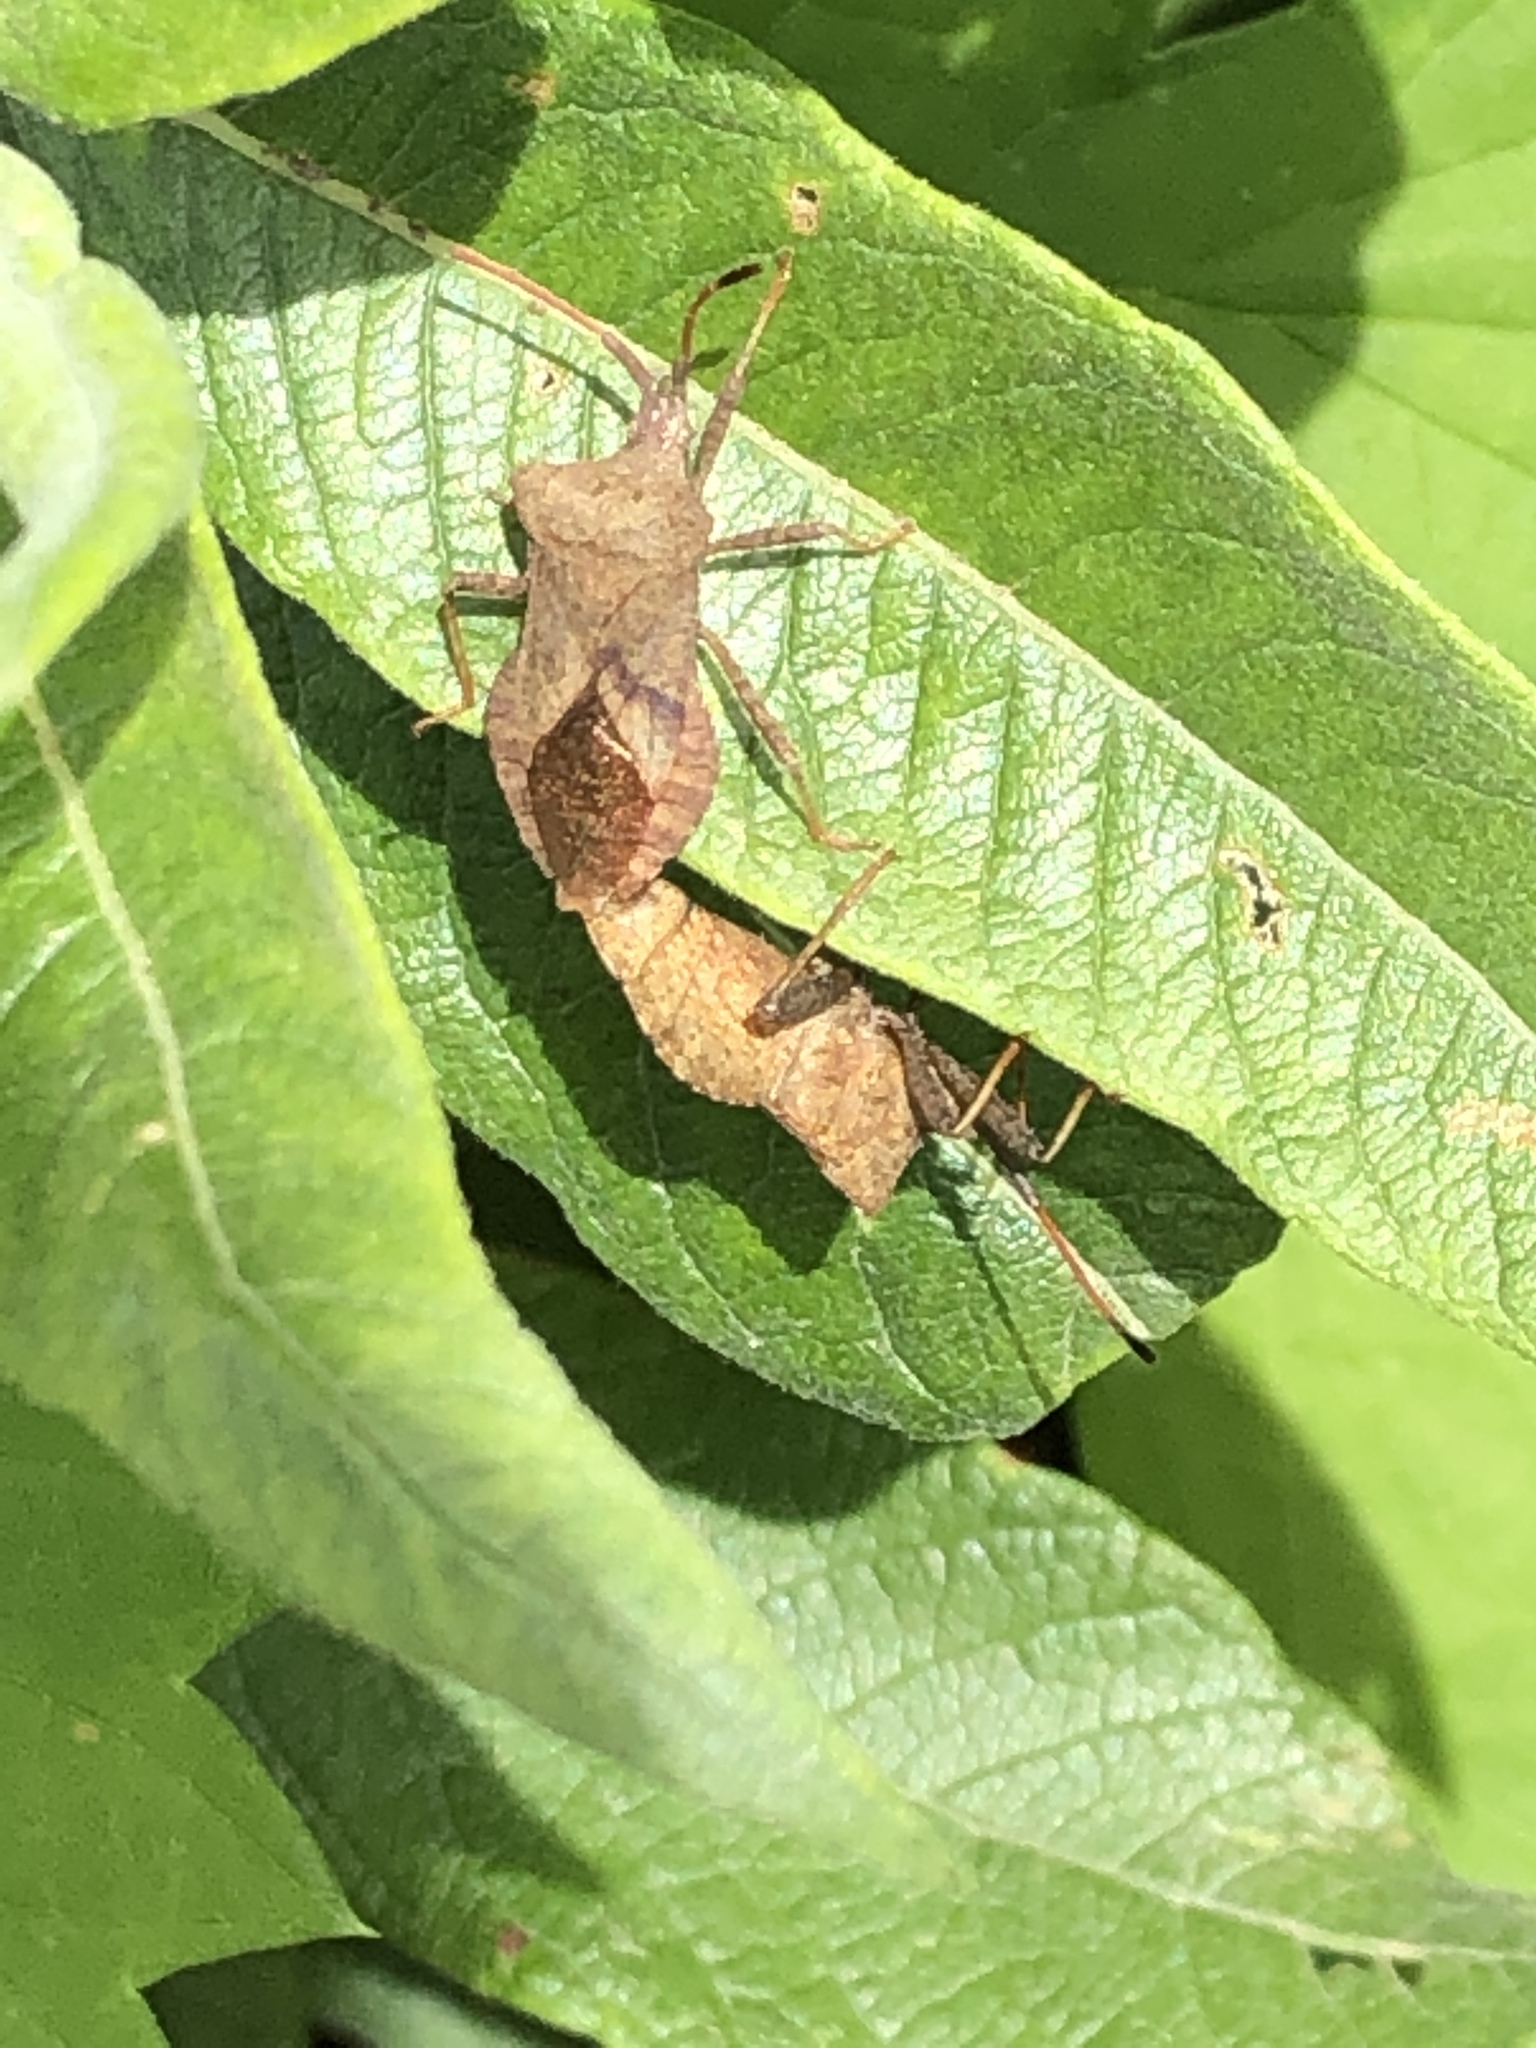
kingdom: Animalia
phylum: Arthropoda
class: Insecta
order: Hemiptera
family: Coreidae
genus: Coreus
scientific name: Coreus marginatus
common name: Dock bug
